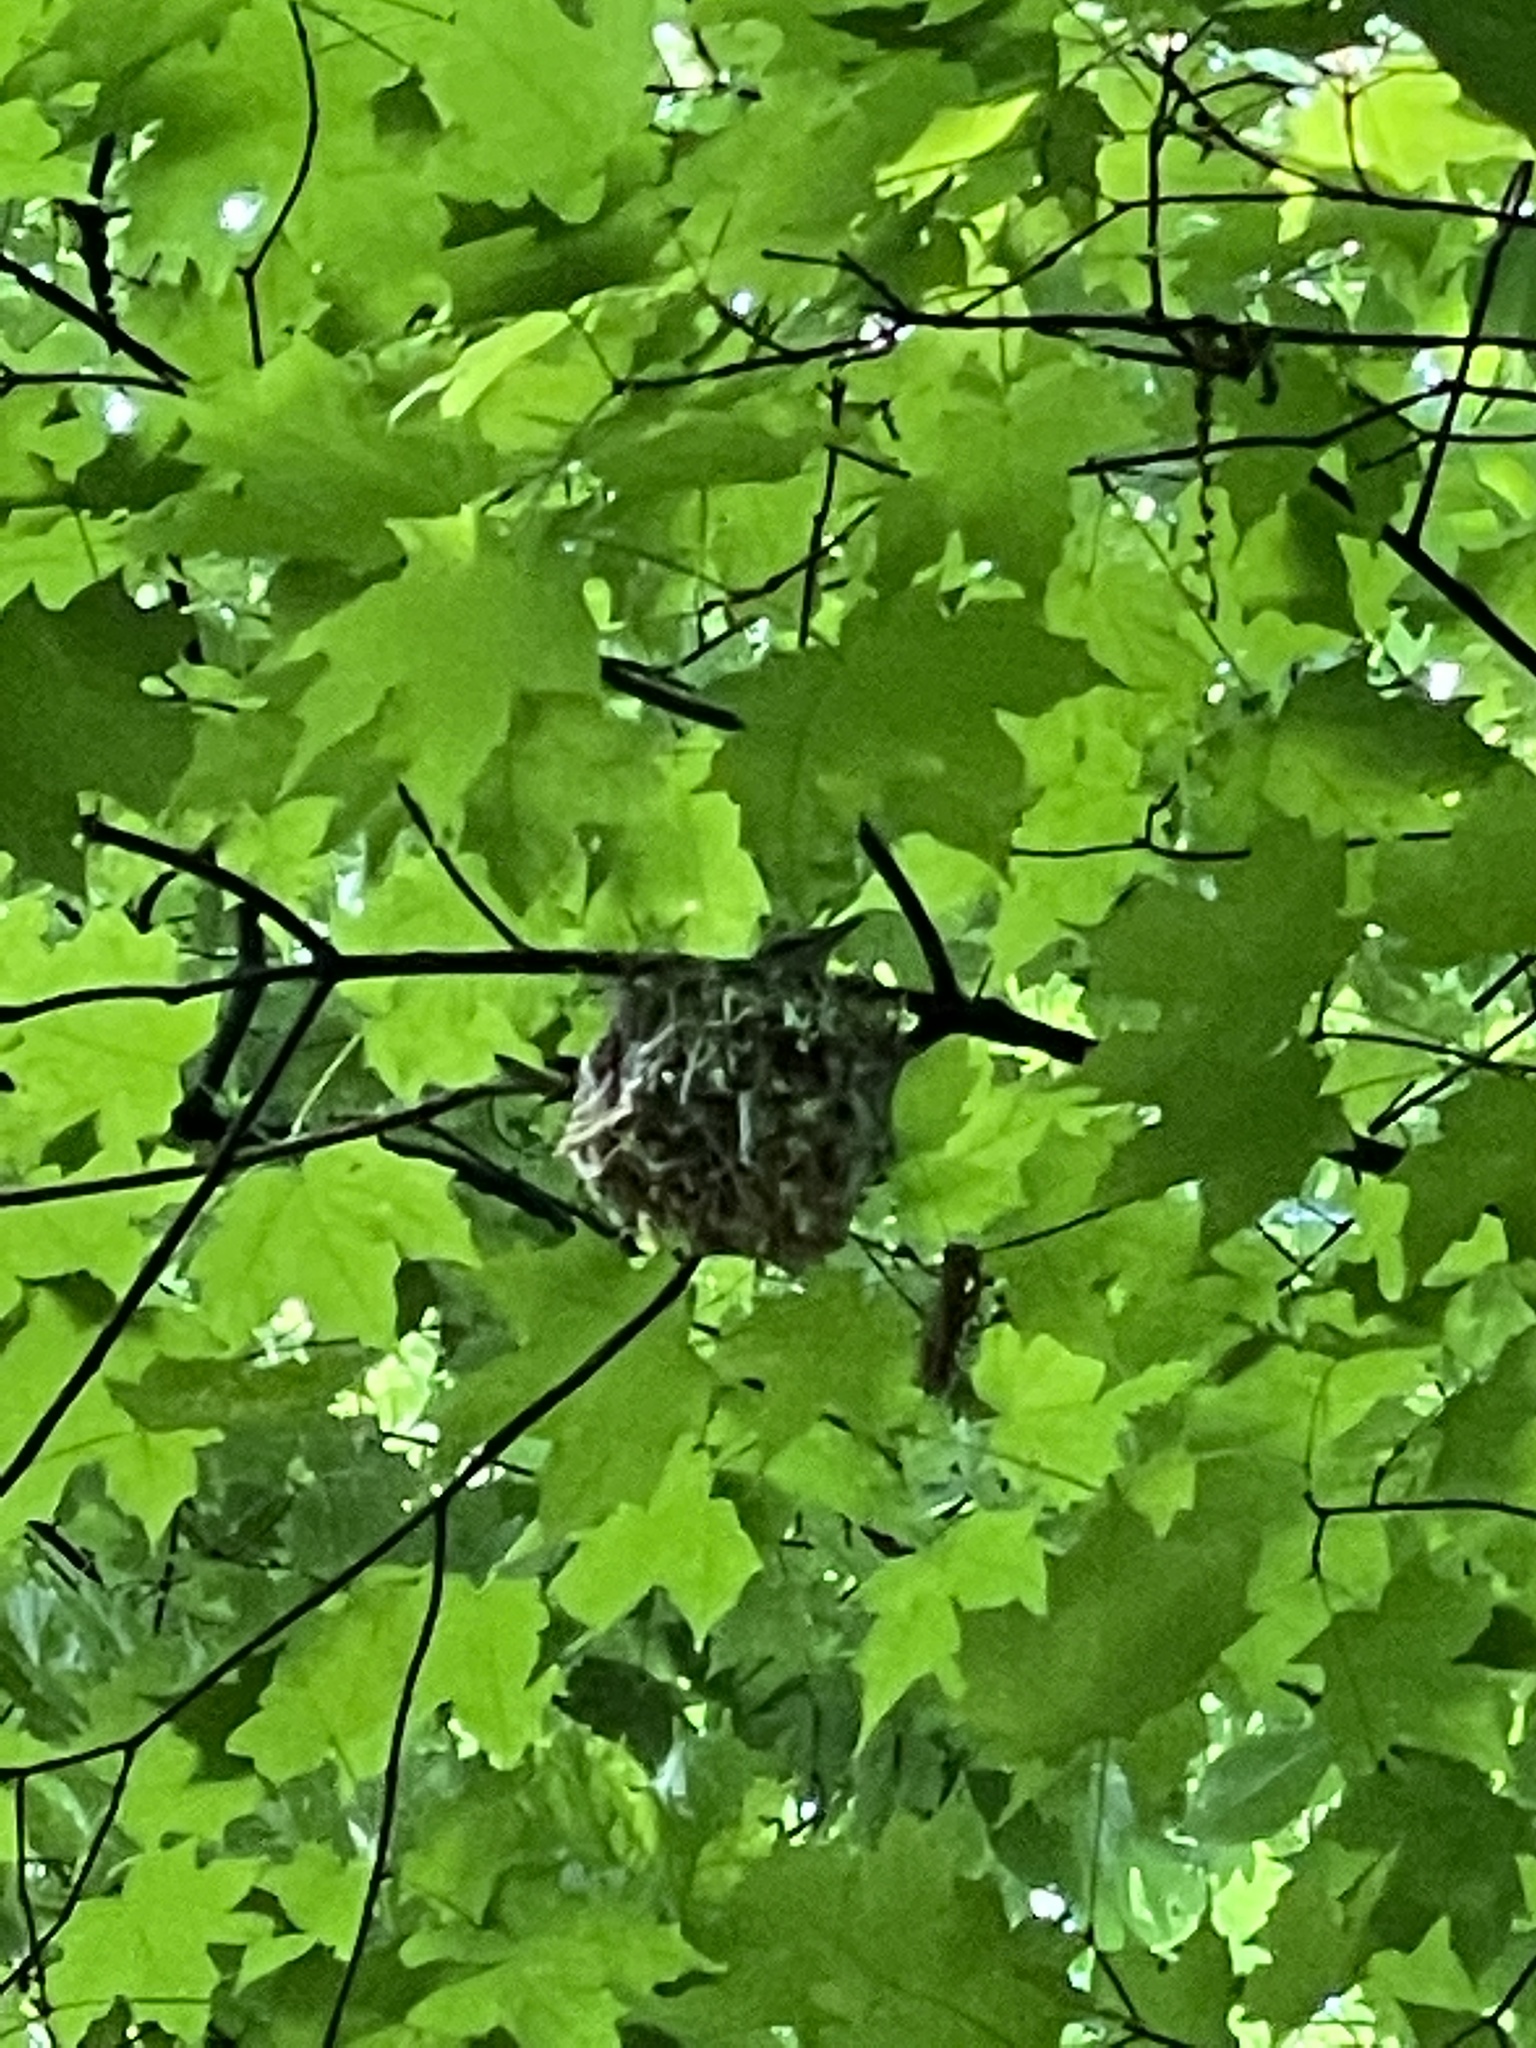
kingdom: Animalia
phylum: Chordata
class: Aves
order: Passeriformes
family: Vireonidae
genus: Vireo
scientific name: Vireo olivaceus
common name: Red-eyed vireo
